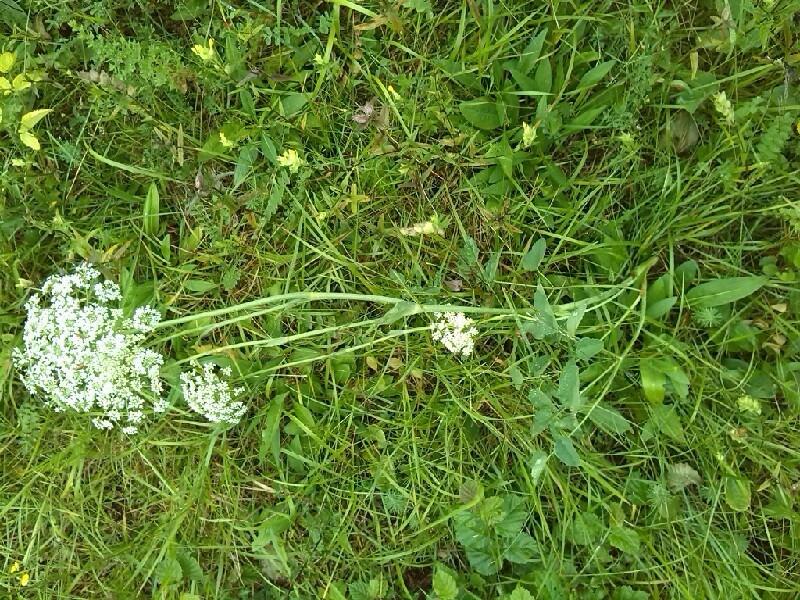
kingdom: Plantae
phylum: Tracheophyta
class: Magnoliopsida
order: Apiales
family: Apiaceae
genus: Laserpitium
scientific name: Laserpitium latifolium
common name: Broadleaf sermountain
